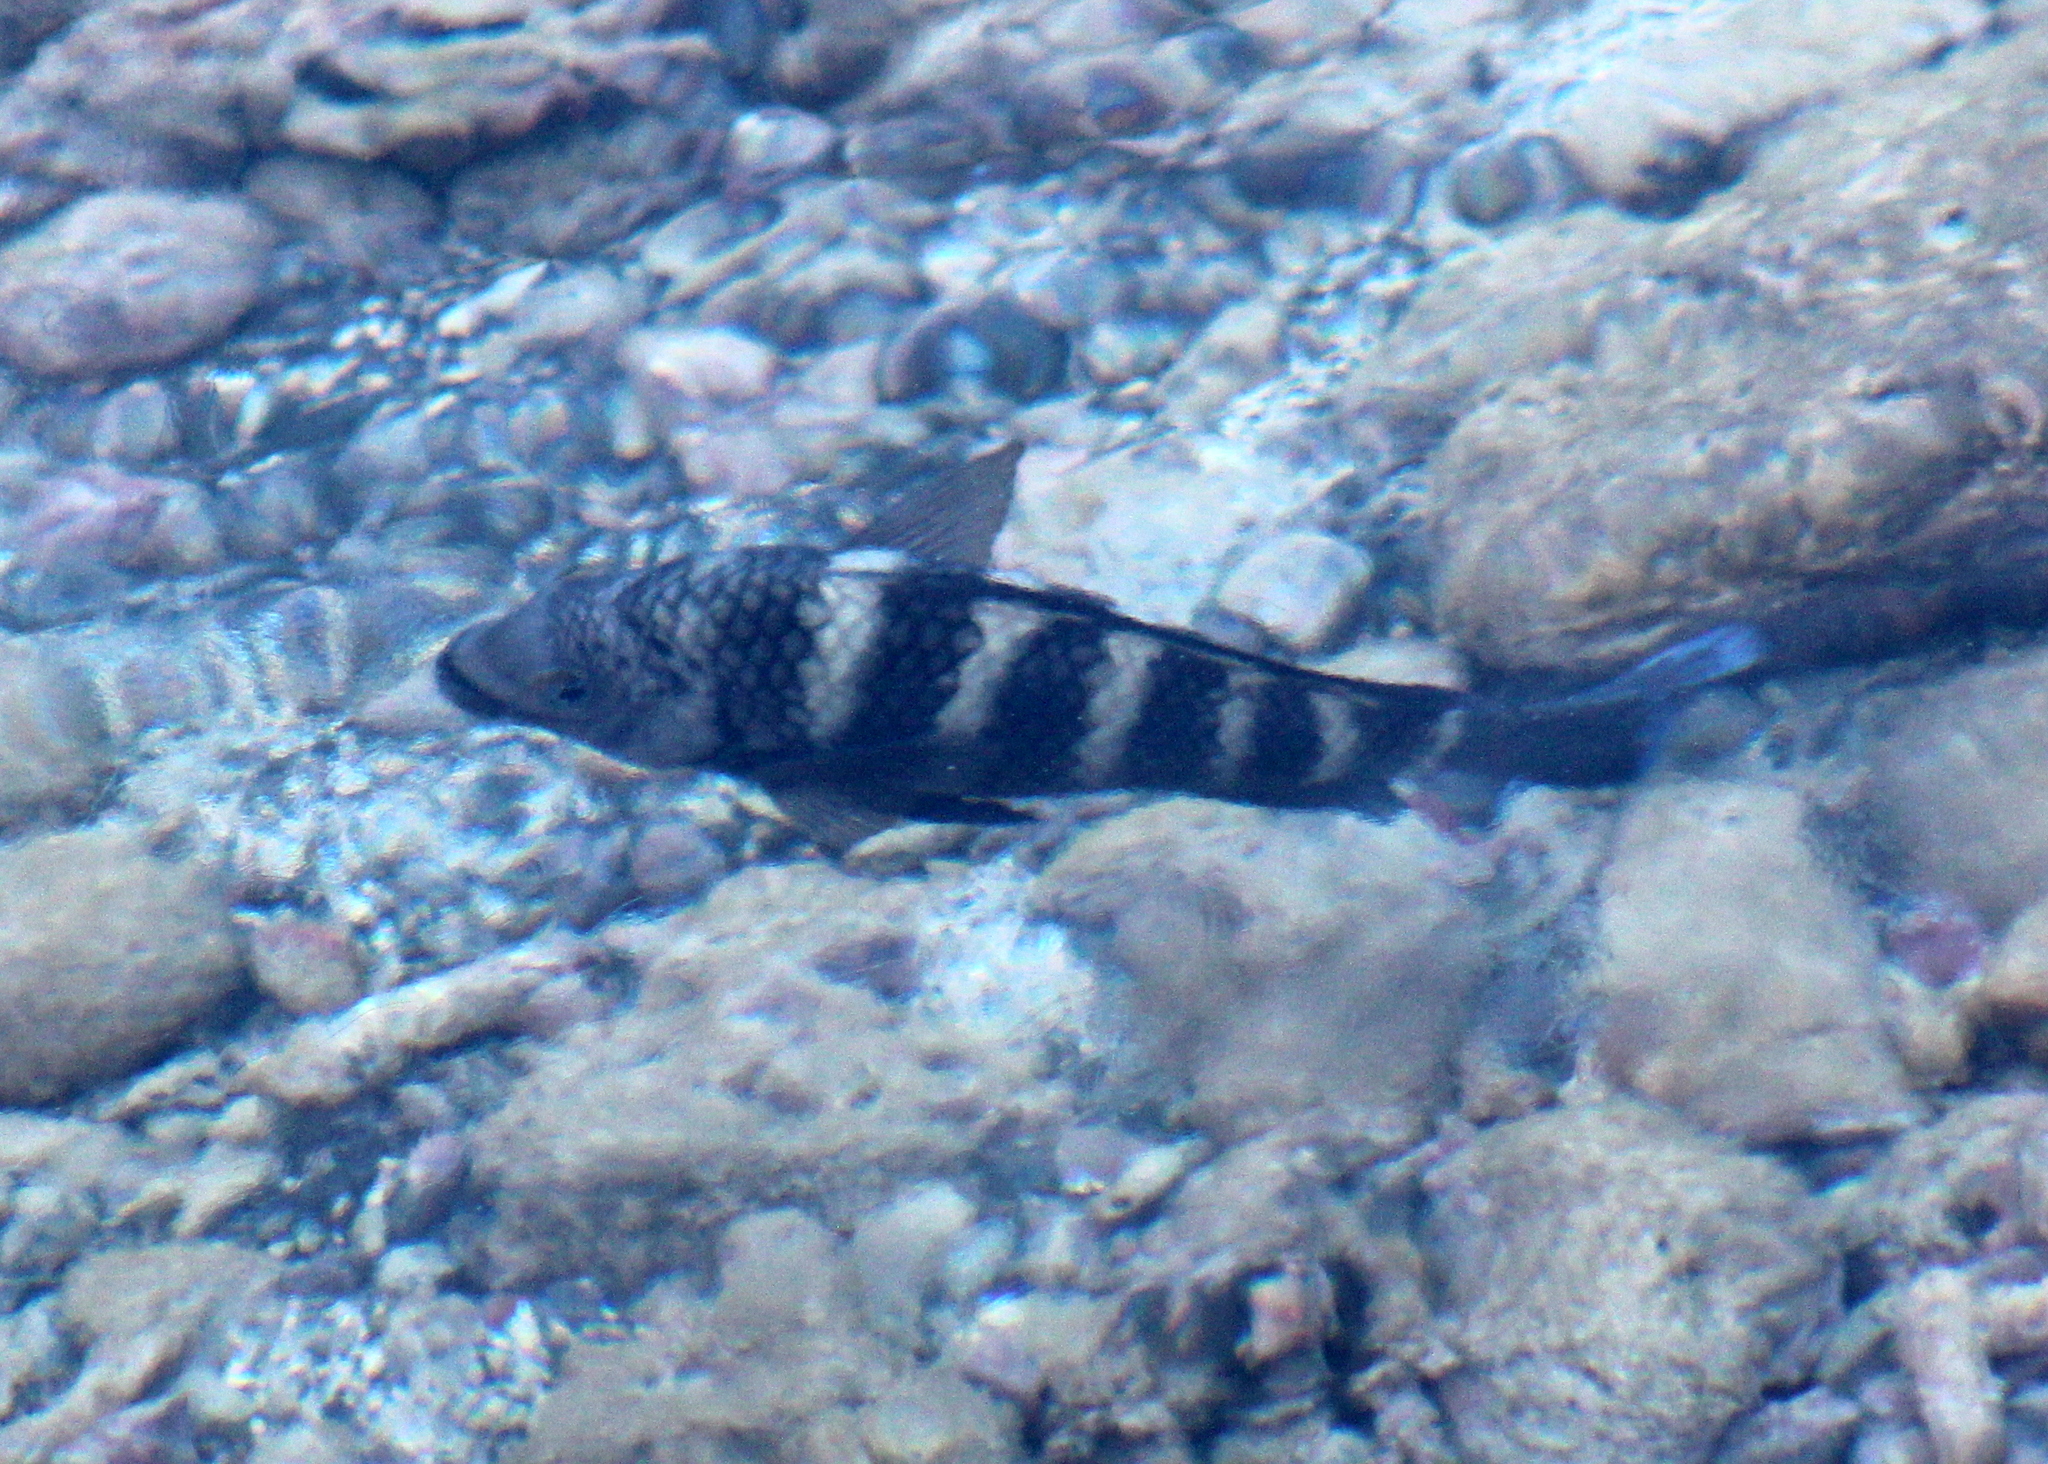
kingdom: Animalia
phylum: Chordata
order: Perciformes
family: Pomacentridae
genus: Abudefduf
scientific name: Abudefduf septemfasciatus
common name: Banded sergeant
